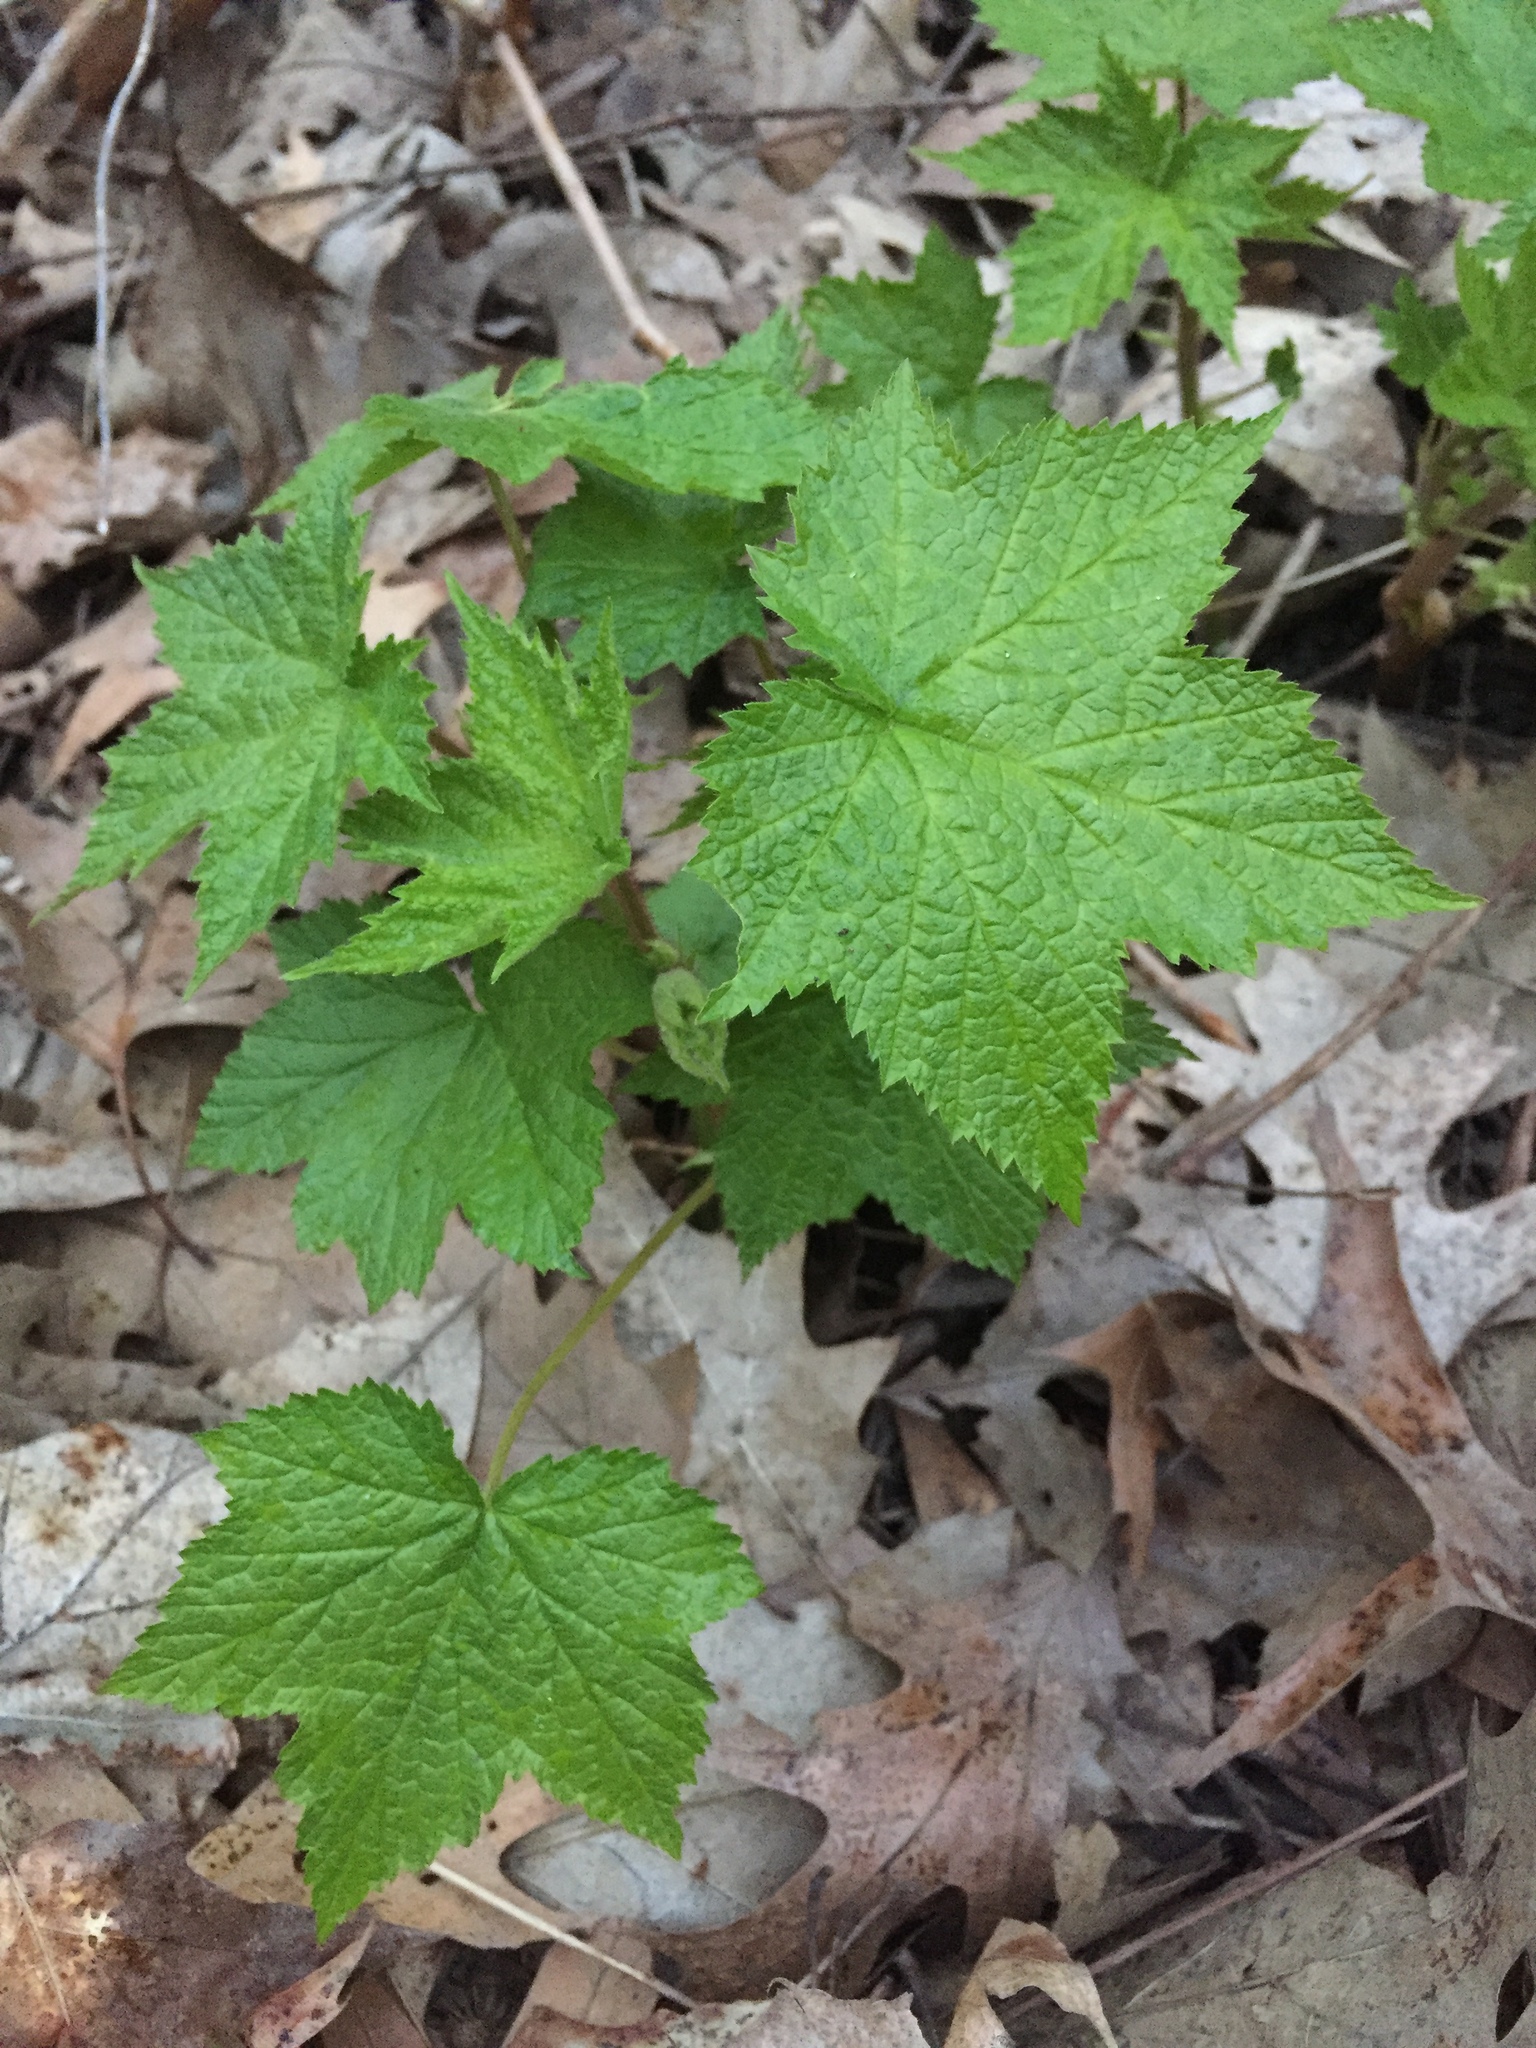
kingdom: Plantae
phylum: Tracheophyta
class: Magnoliopsida
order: Rosales
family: Rosaceae
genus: Rubus
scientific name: Rubus odoratus
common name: Purple-flowered raspberry
